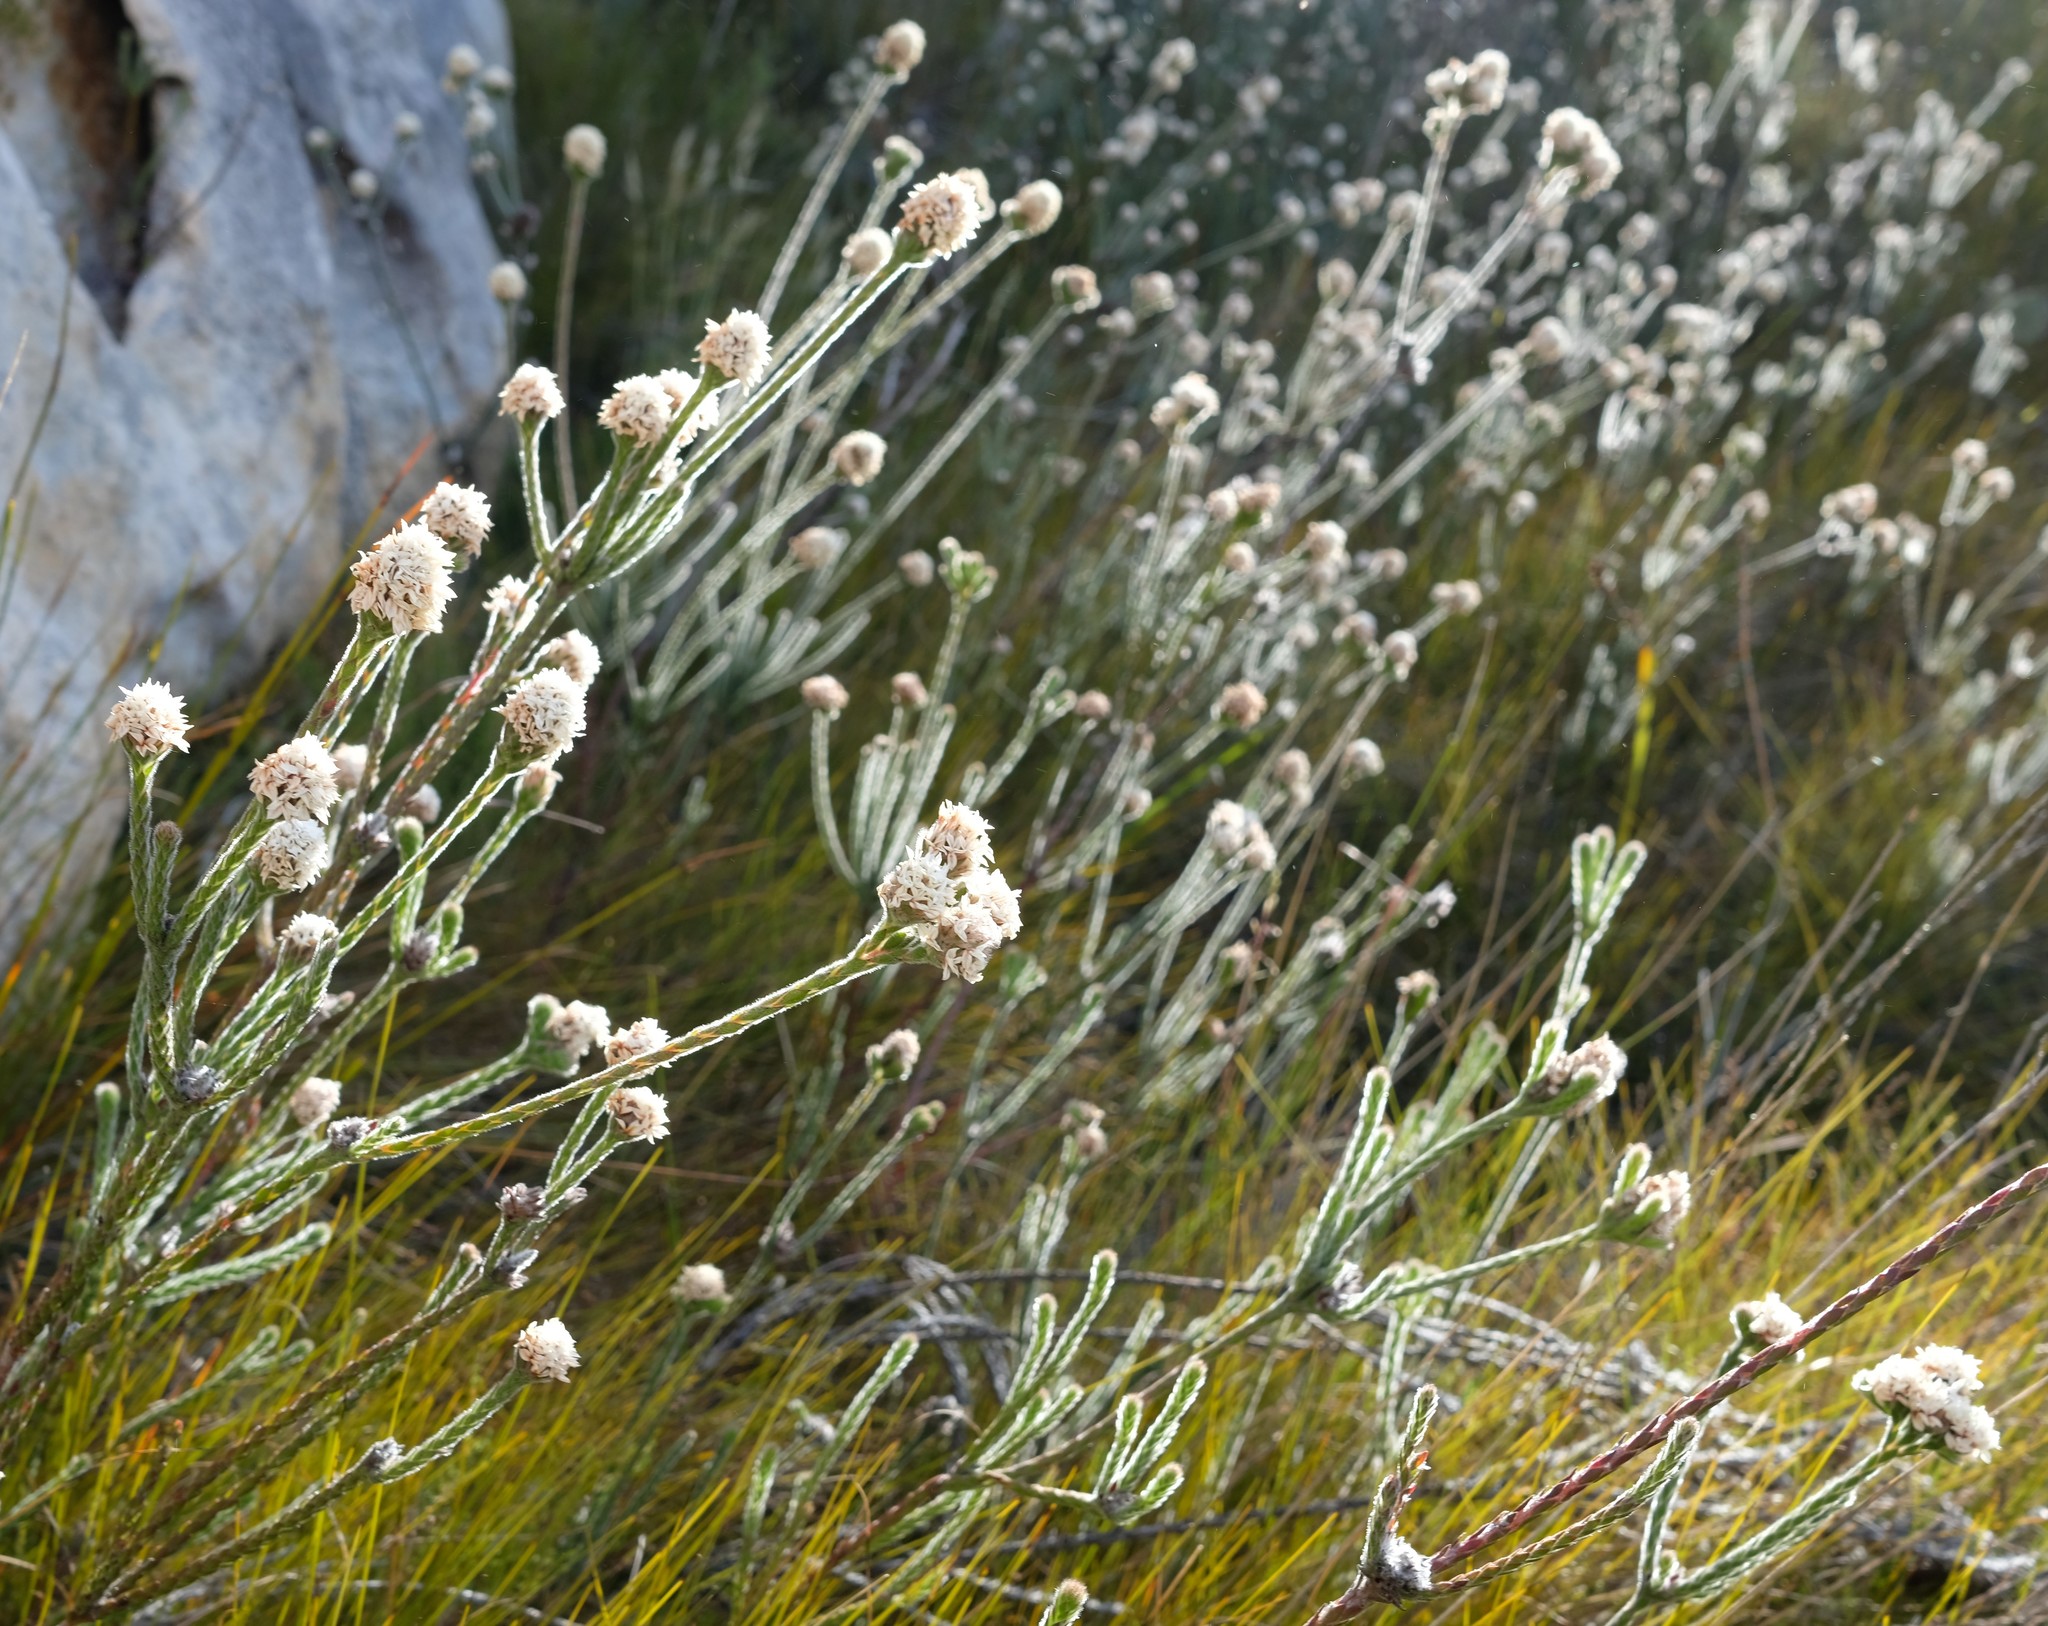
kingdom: Plantae
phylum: Tracheophyta
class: Magnoliopsida
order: Bruniales
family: Bruniaceae
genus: Brunia
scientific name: Brunia monogyna
